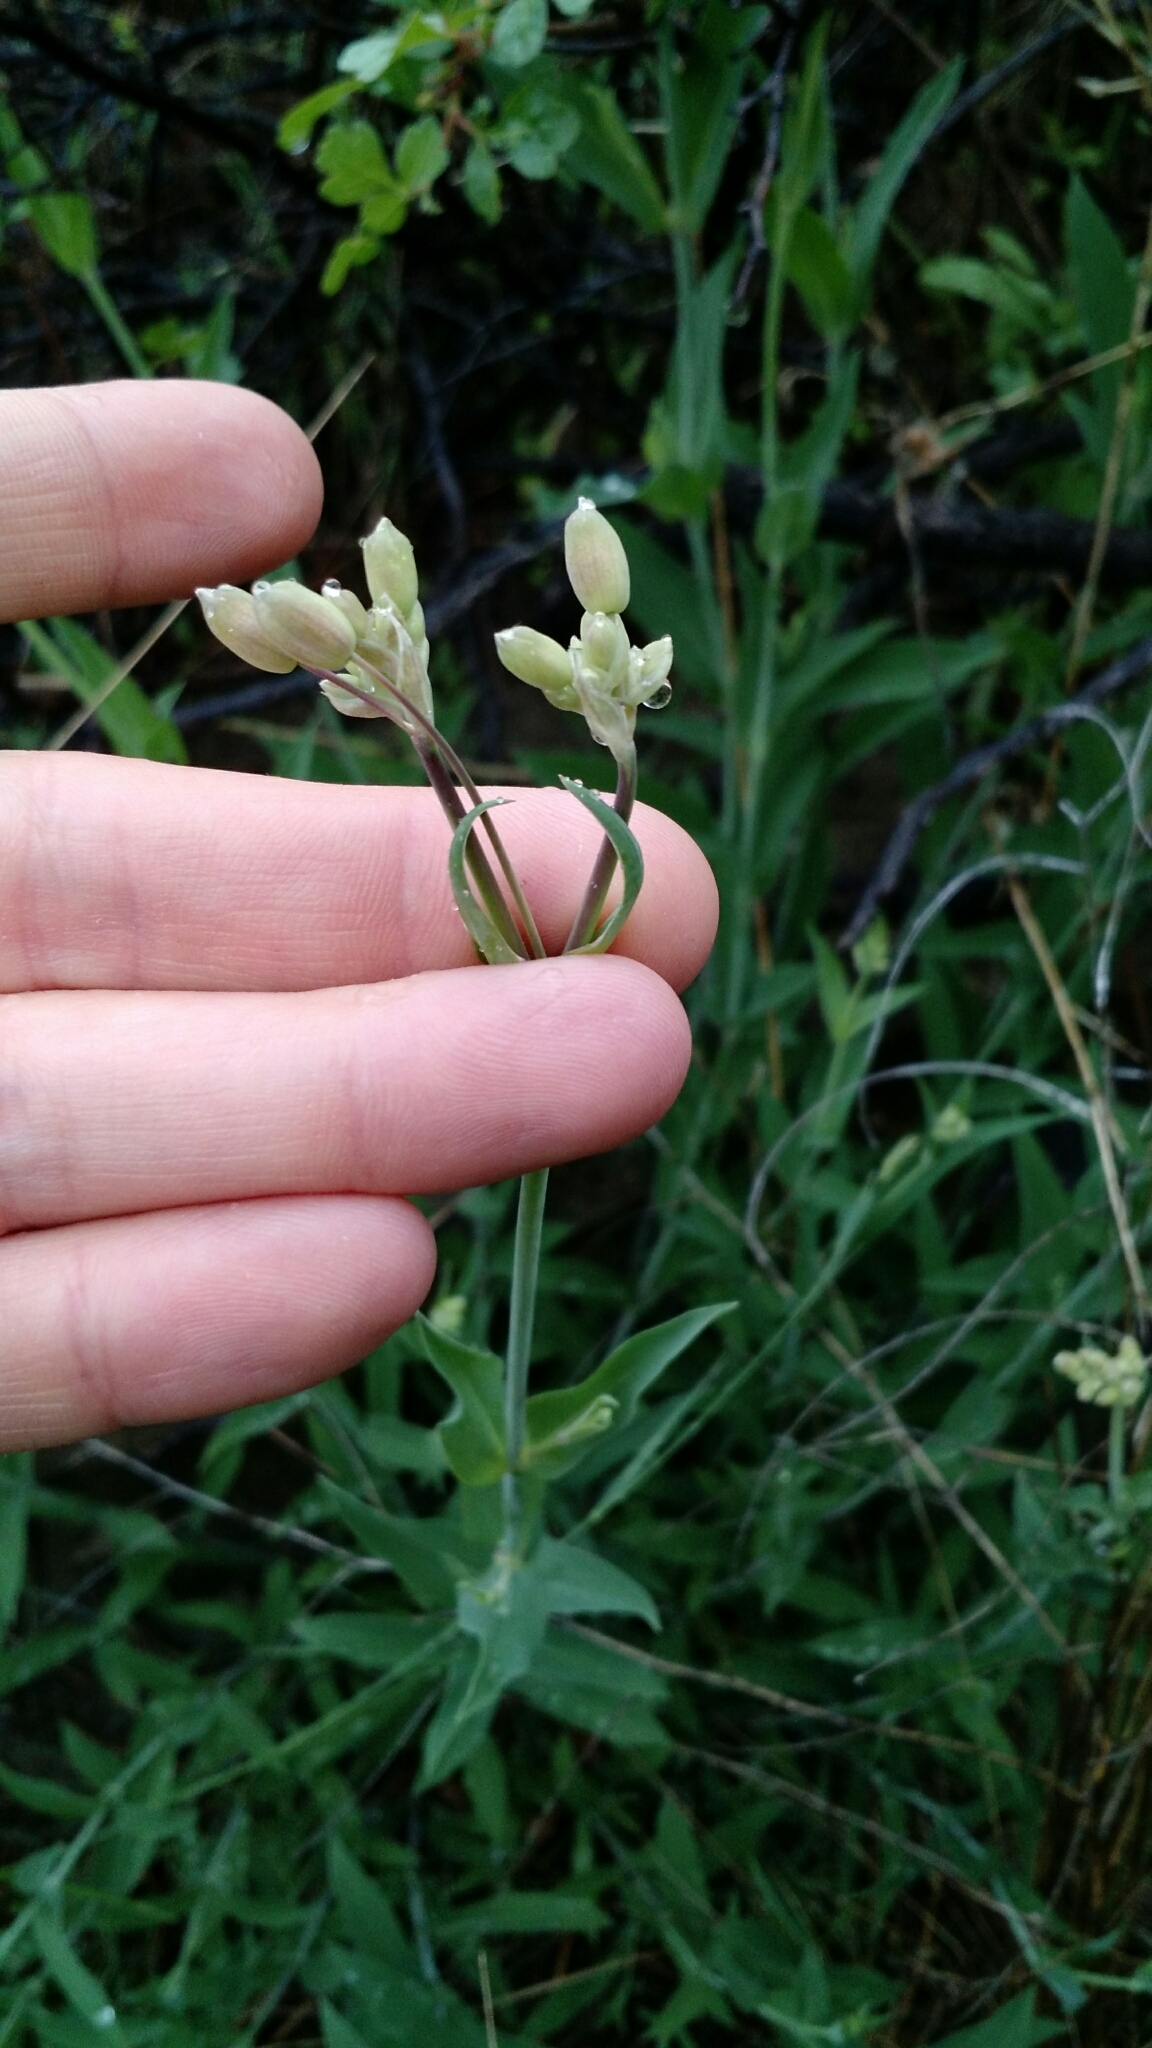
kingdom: Plantae
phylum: Tracheophyta
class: Magnoliopsida
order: Caryophyllales
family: Caryophyllaceae
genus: Silene
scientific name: Silene vulgaris
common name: Bladder campion
